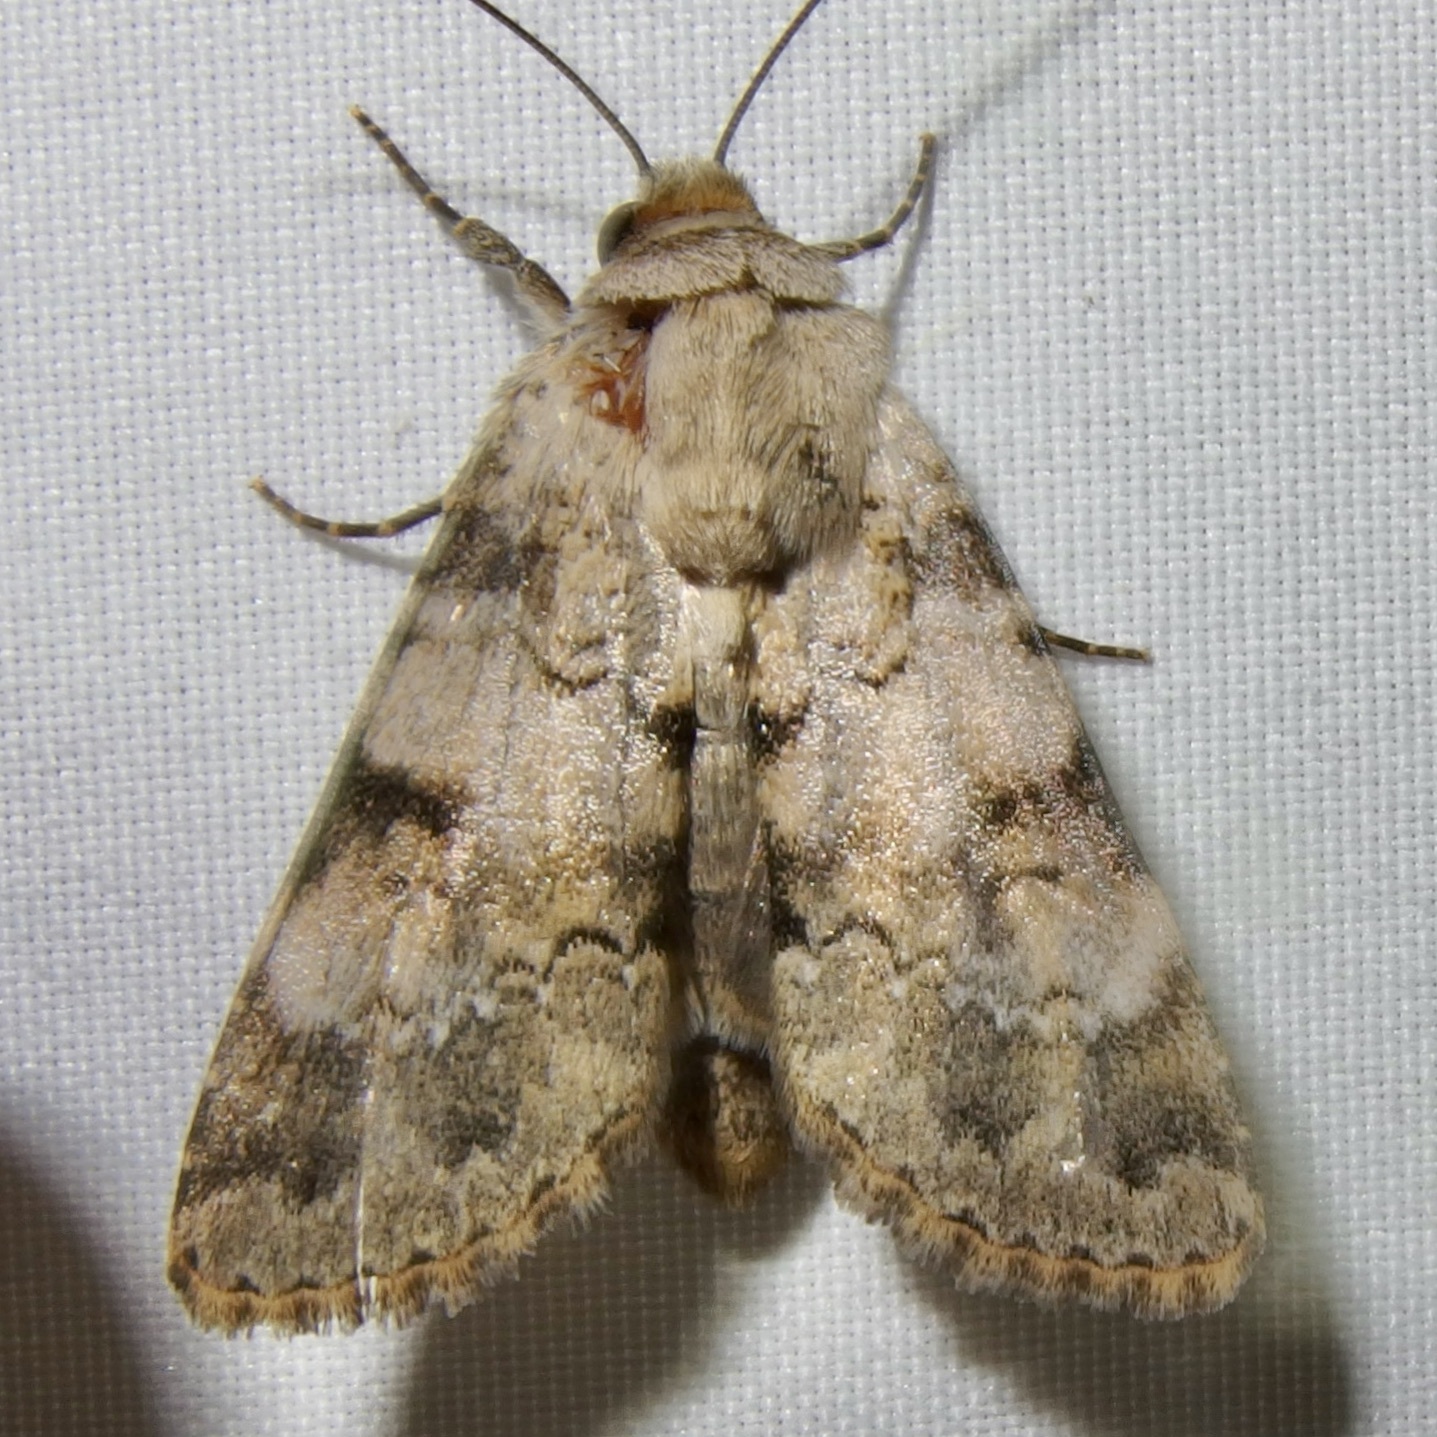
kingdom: Animalia
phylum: Arthropoda
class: Insecta
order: Lepidoptera
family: Noctuidae
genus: Agrotisia
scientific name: Agrotisia evelinae
